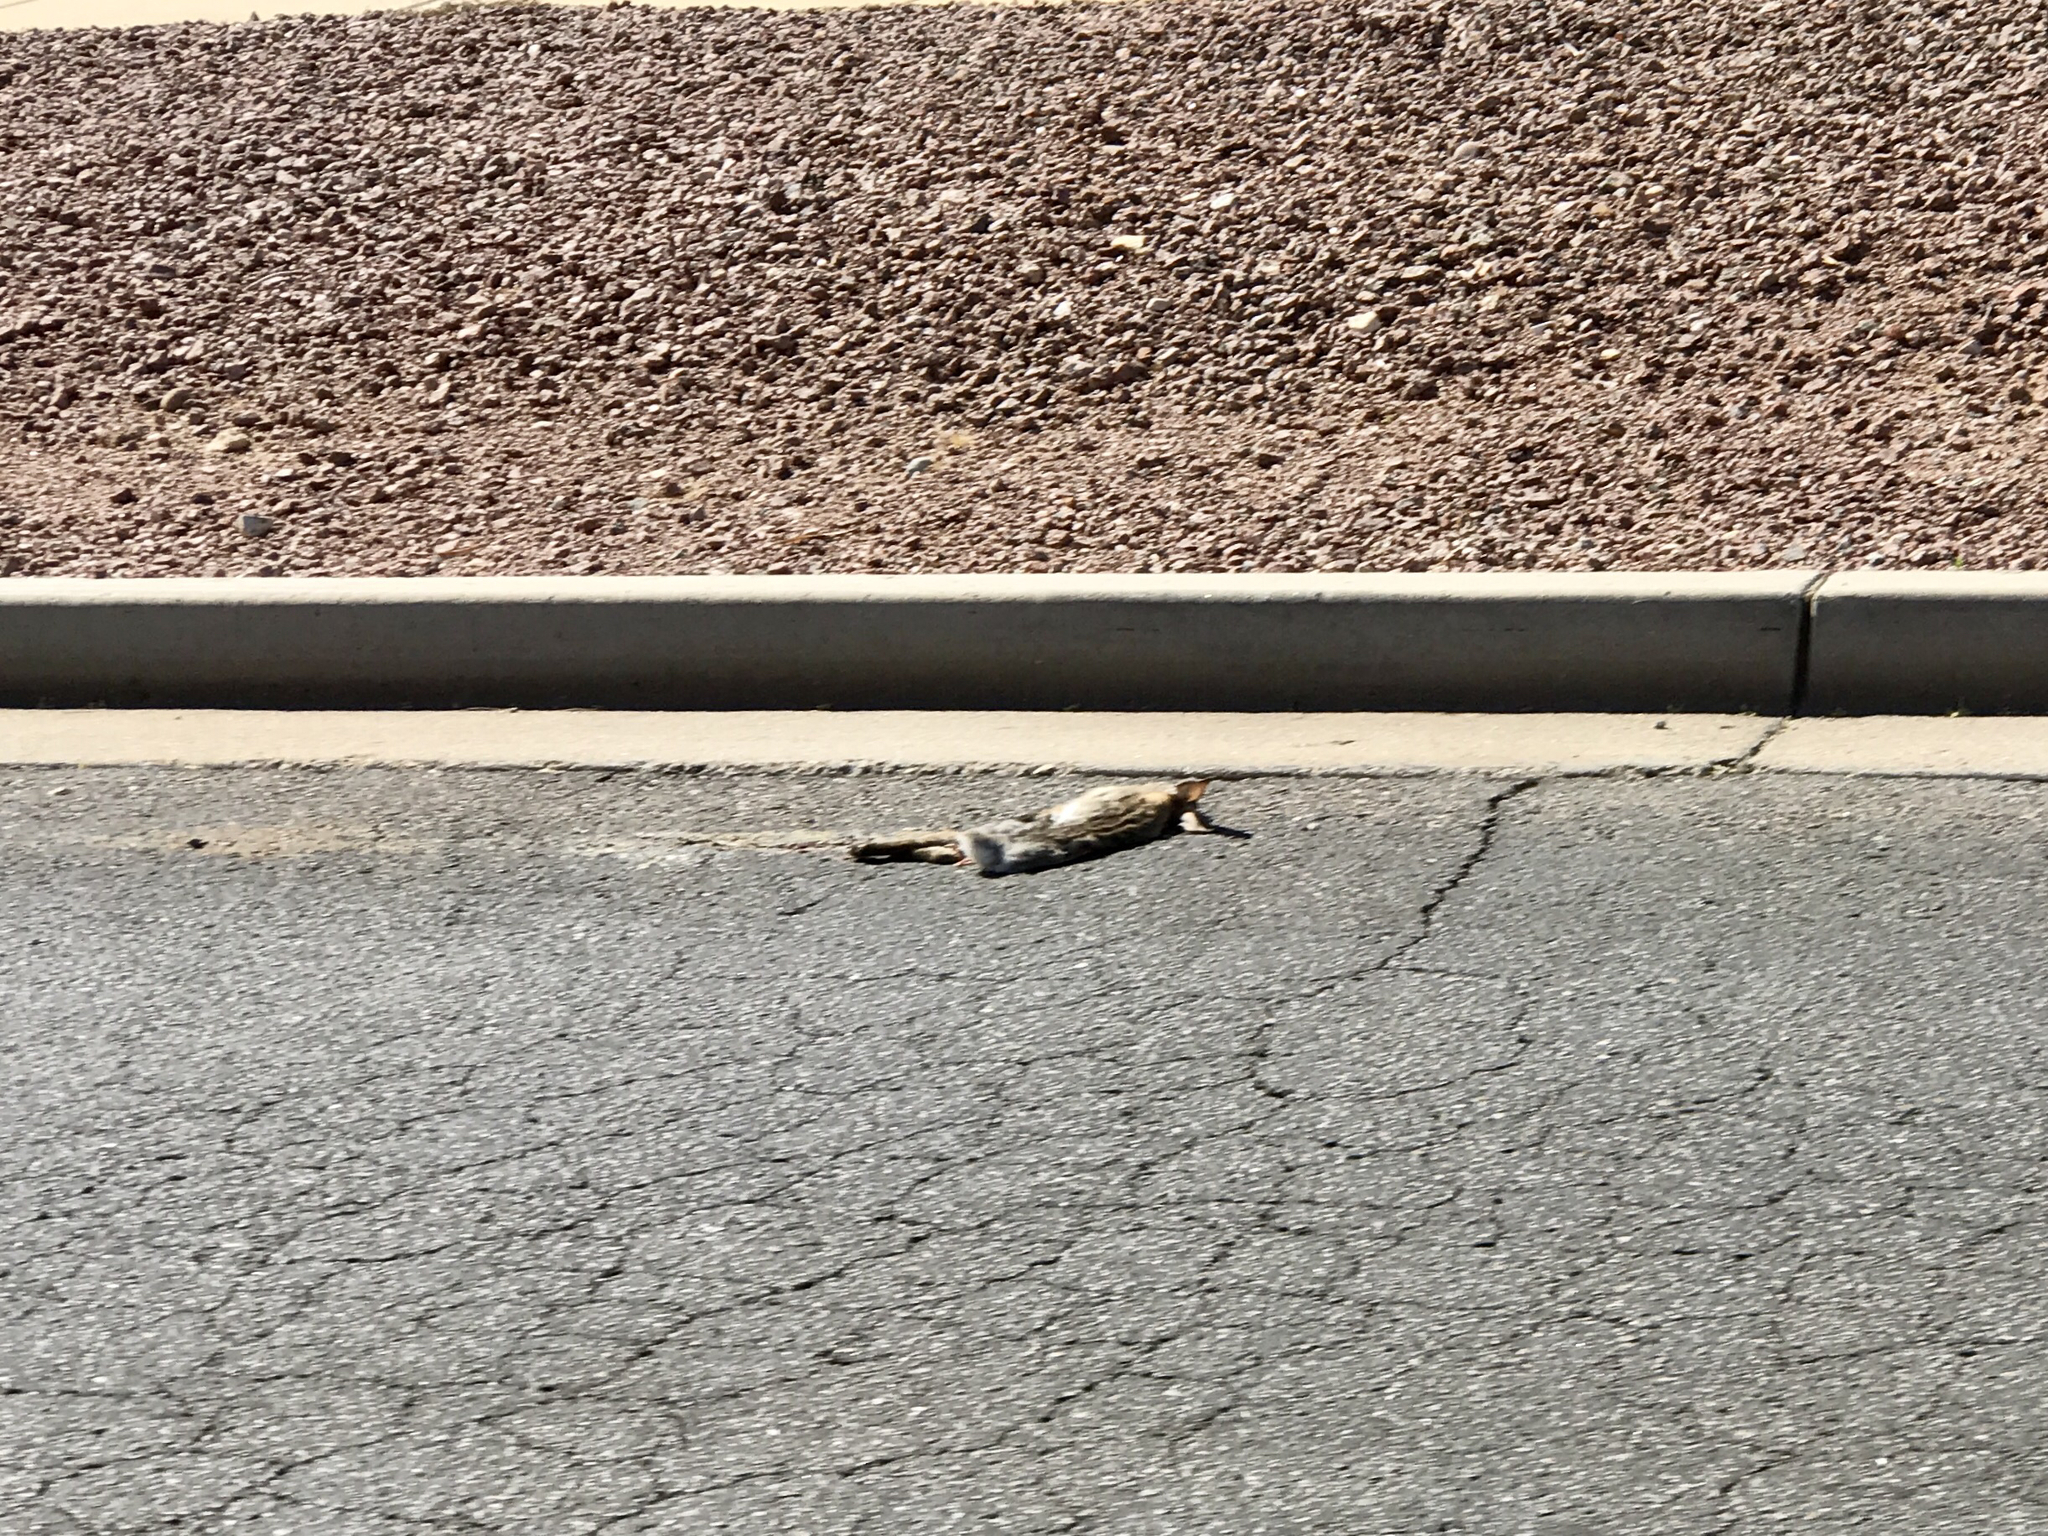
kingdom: Animalia
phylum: Chordata
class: Mammalia
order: Lagomorpha
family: Leporidae
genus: Sylvilagus
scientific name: Sylvilagus audubonii
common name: Desert cottontail
